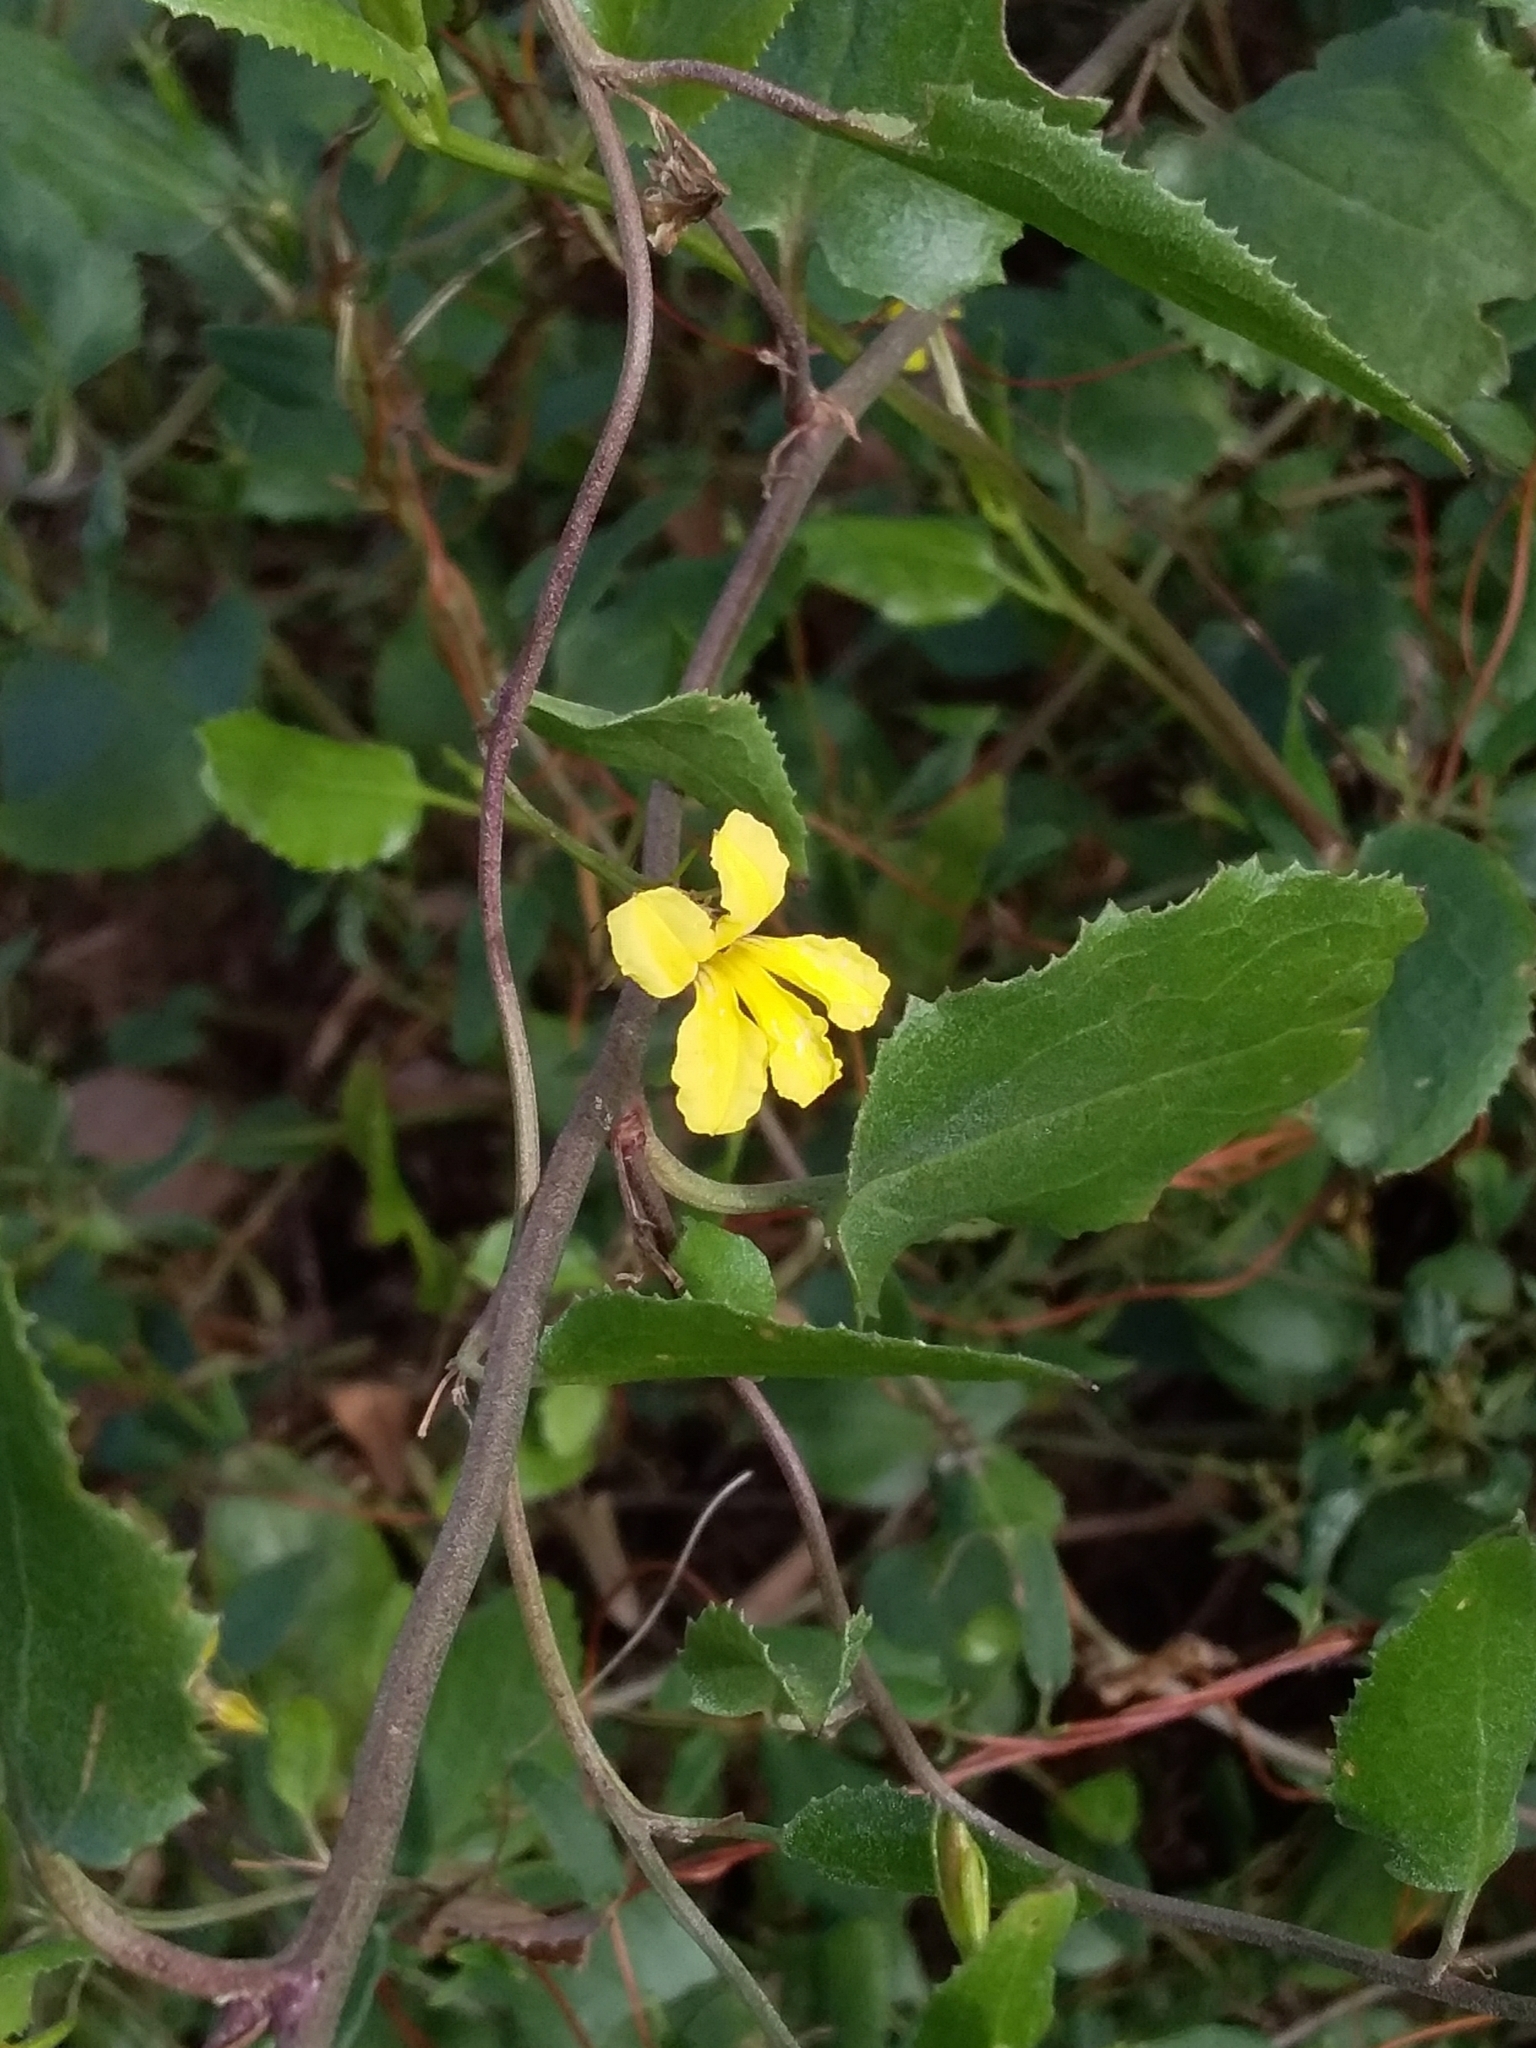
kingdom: Plantae
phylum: Tracheophyta
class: Magnoliopsida
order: Asterales
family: Goodeniaceae
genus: Goodenia
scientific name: Goodenia ovata
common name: Hop goodenia
